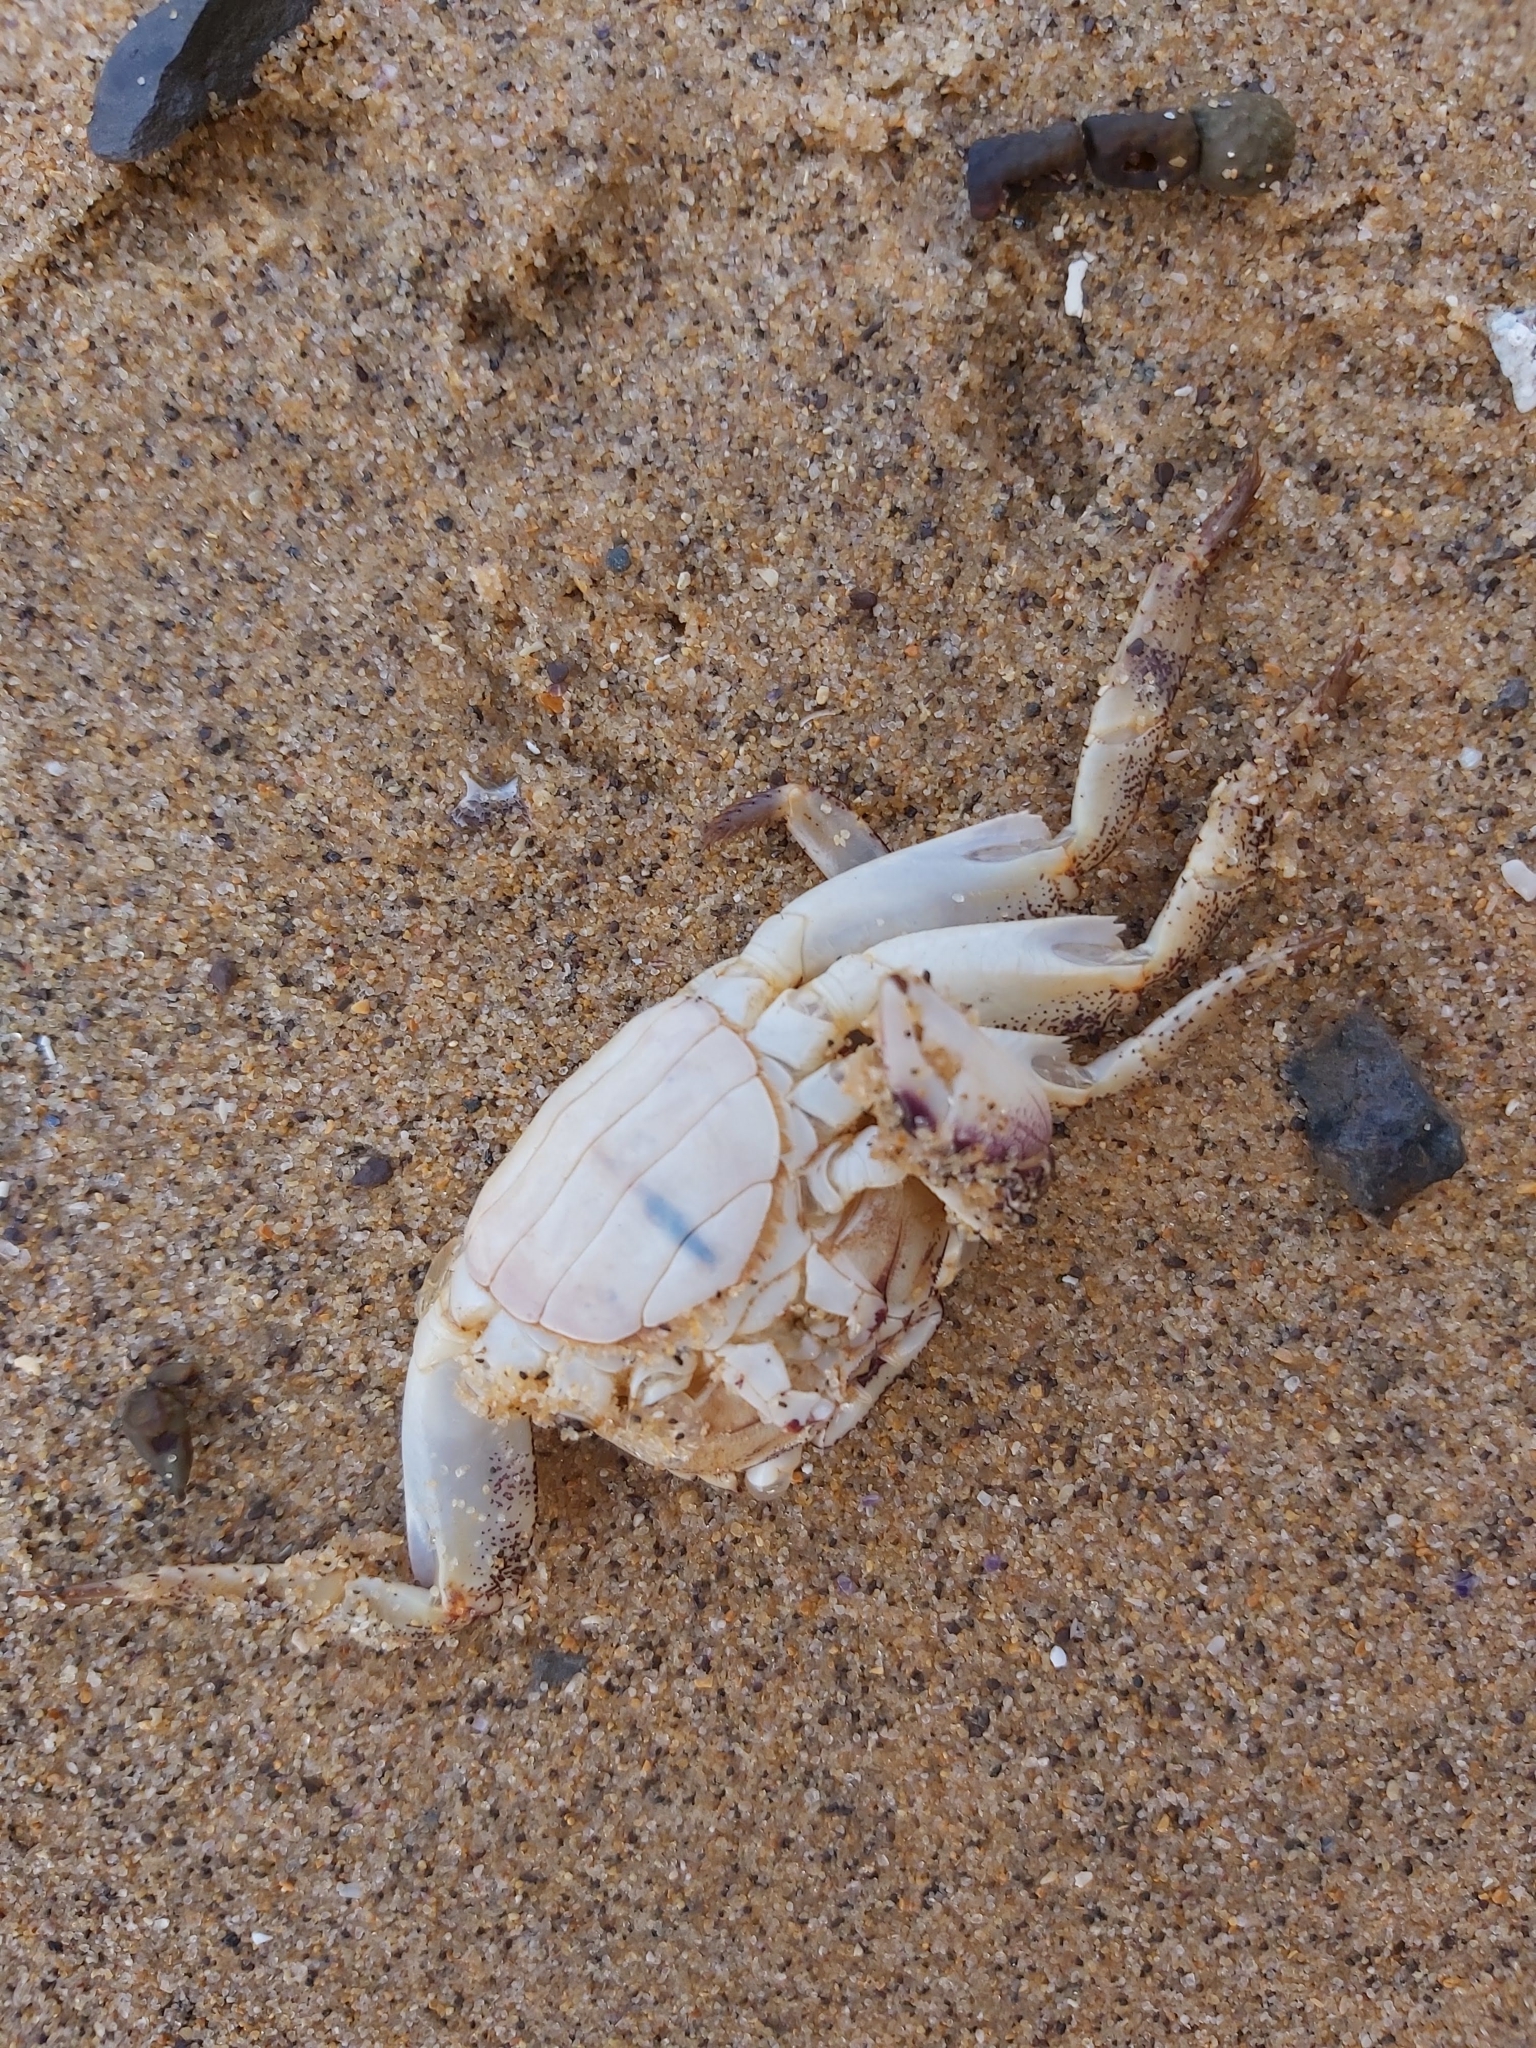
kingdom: Animalia
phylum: Arthropoda
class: Malacostraca
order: Decapoda
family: Grapsidae
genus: Leptograpsus
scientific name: Leptograpsus variegatus
